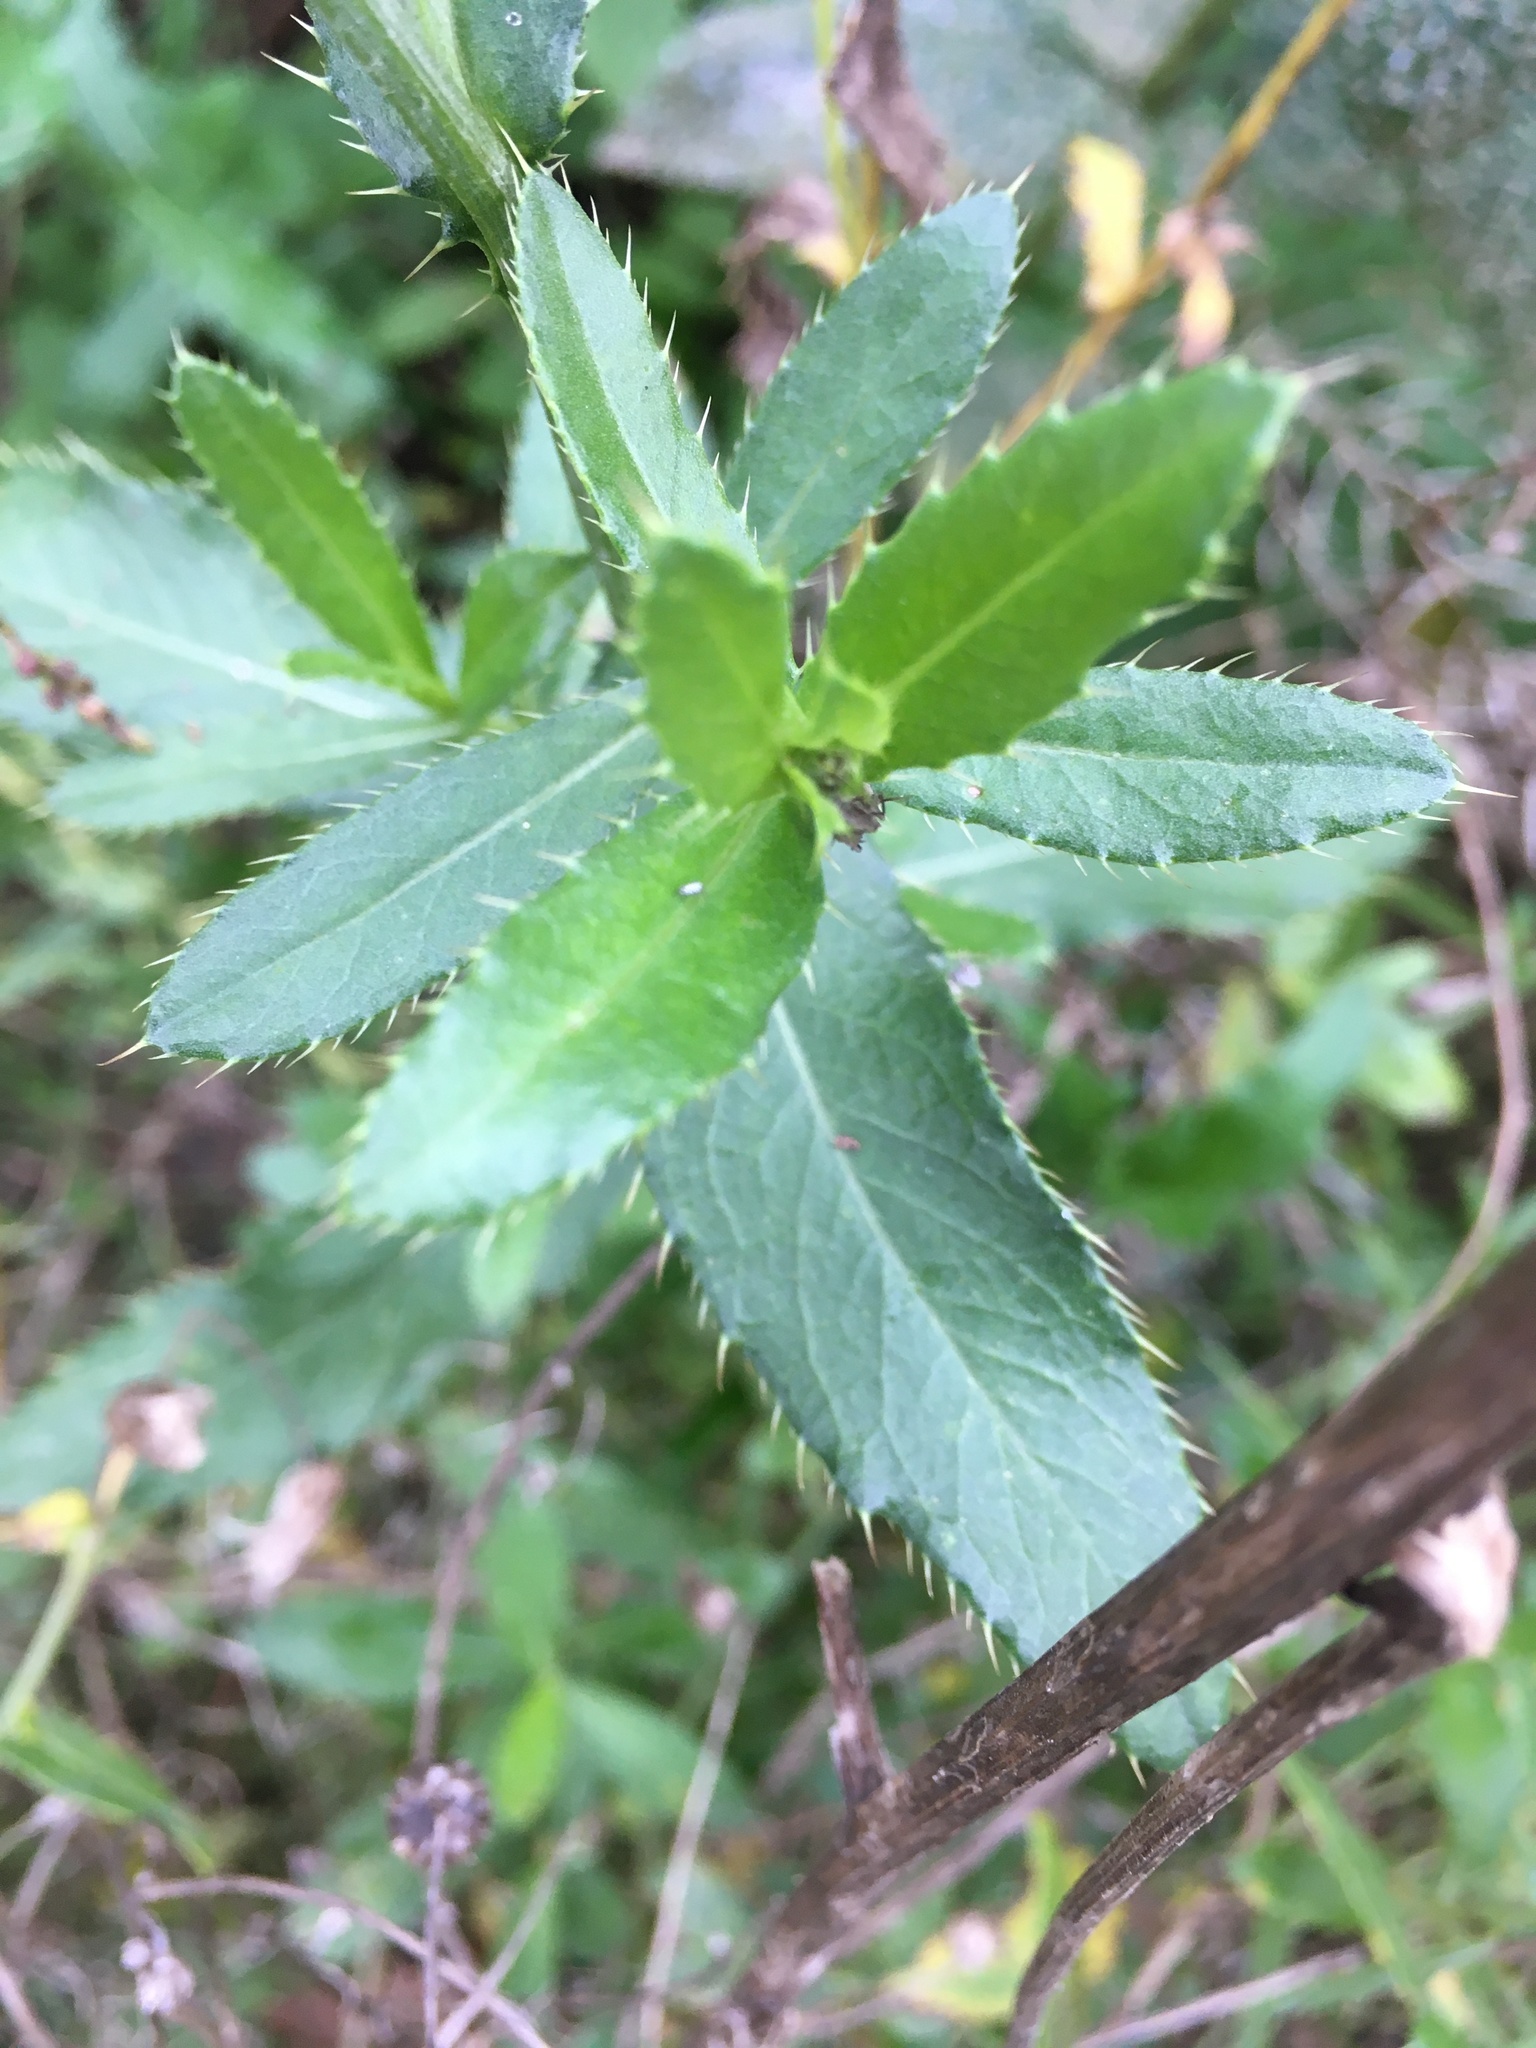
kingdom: Plantae
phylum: Tracheophyta
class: Magnoliopsida
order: Asterales
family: Asteraceae
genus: Cirsium
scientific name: Cirsium arvense
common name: Creeping thistle
